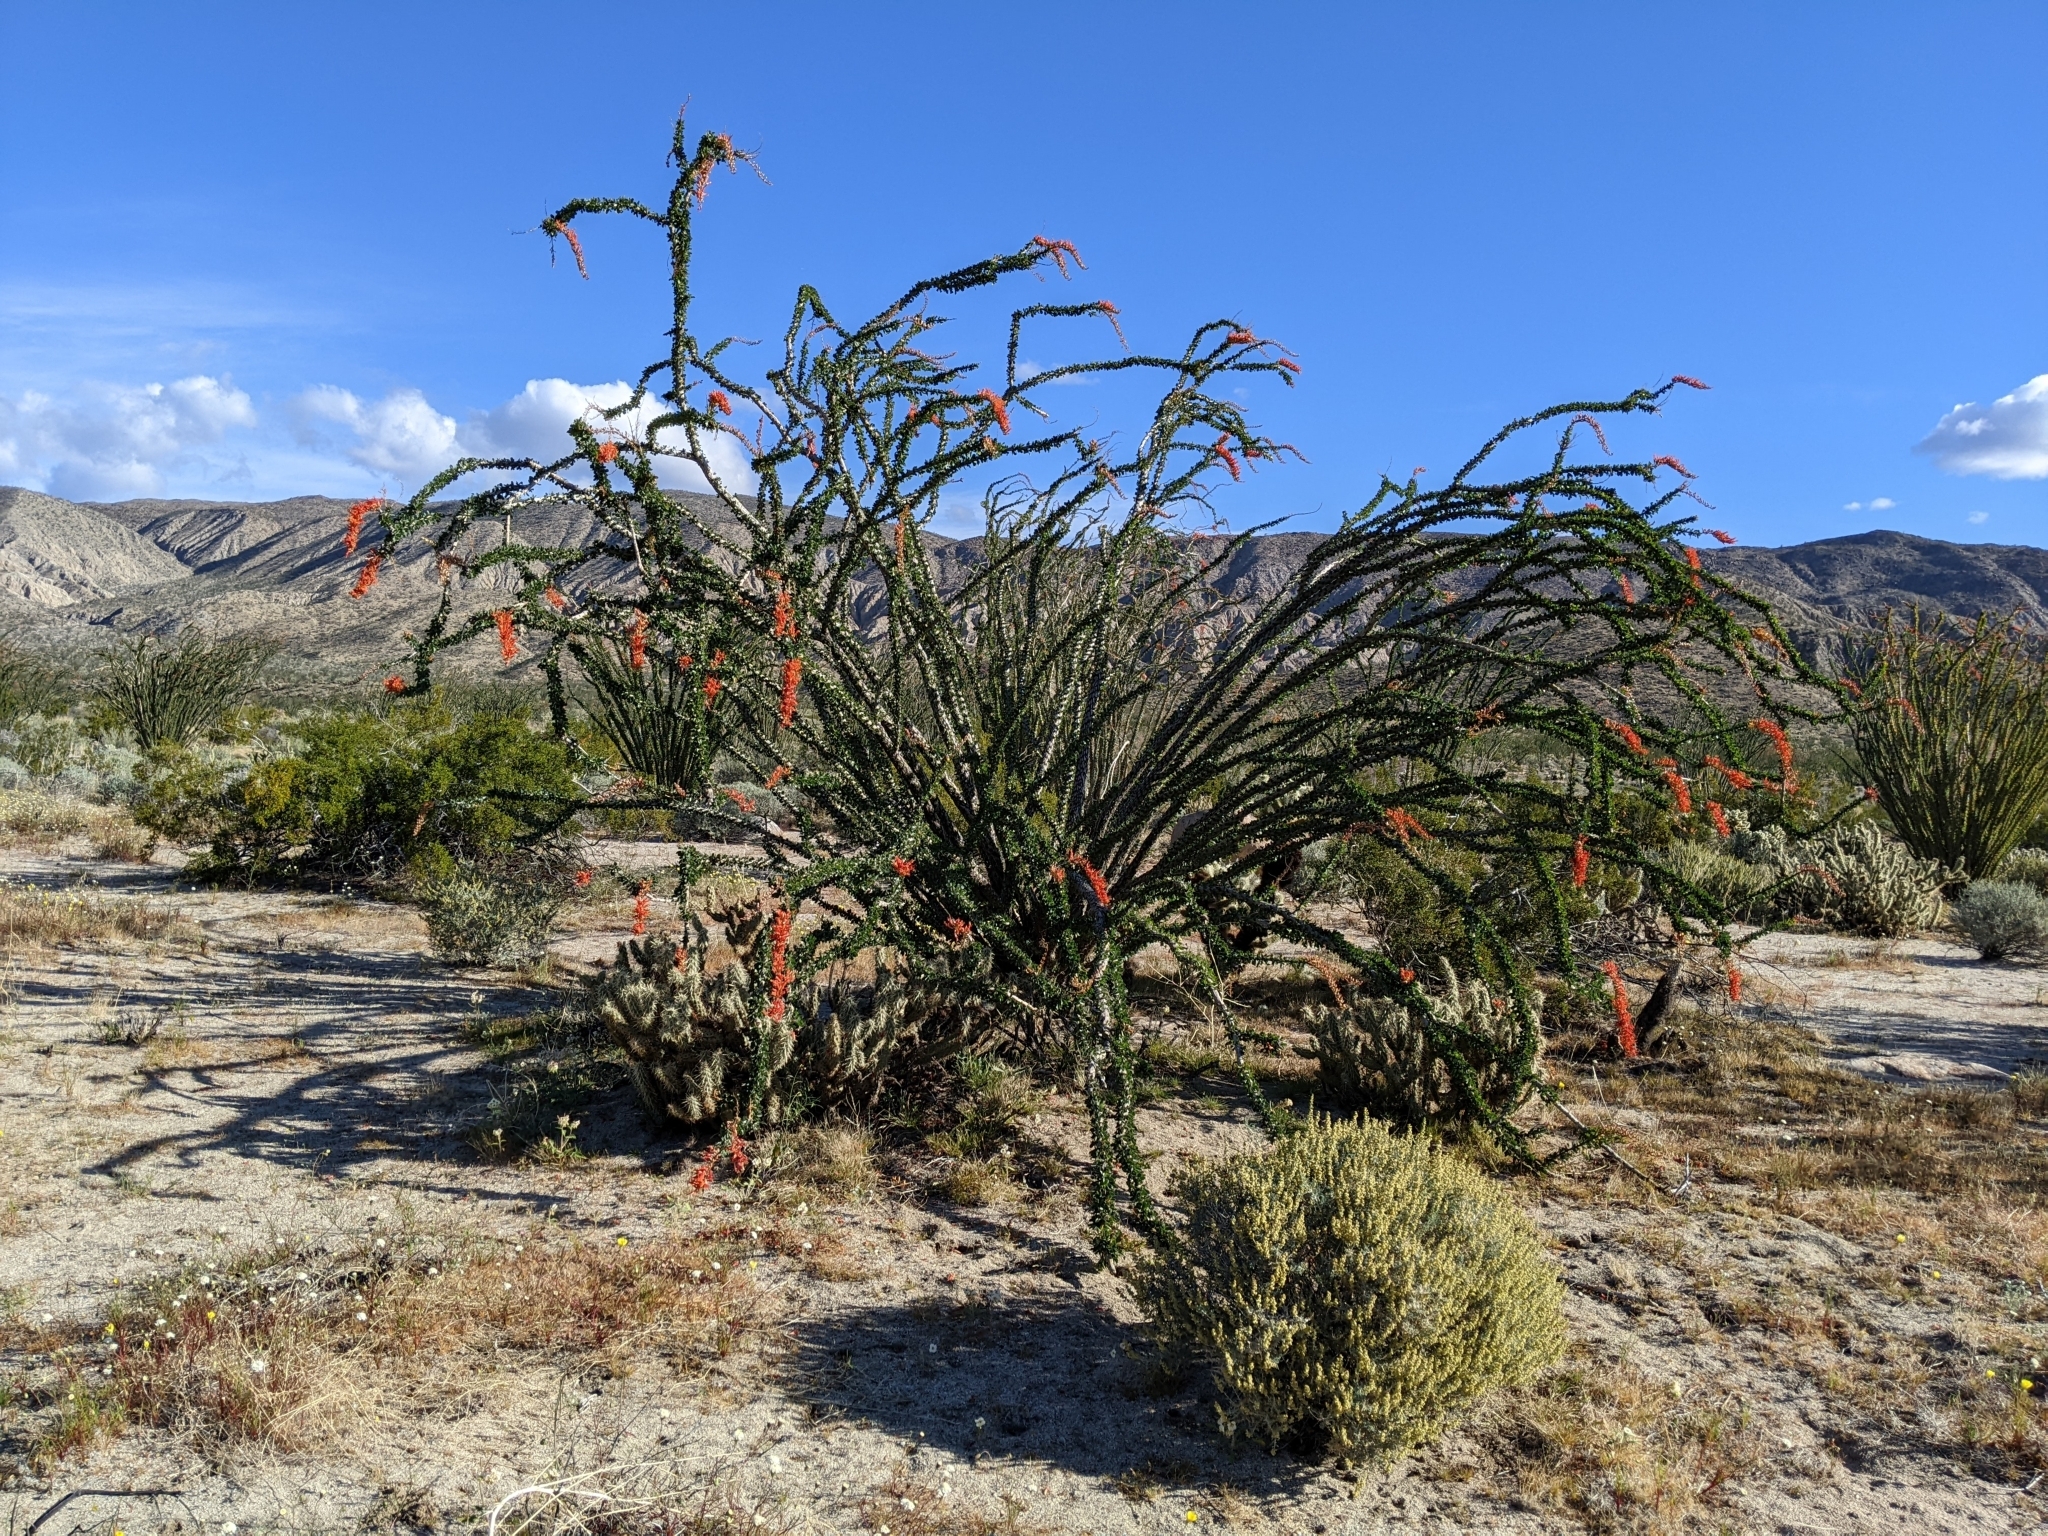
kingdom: Plantae
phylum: Tracheophyta
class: Magnoliopsida
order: Ericales
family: Fouquieriaceae
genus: Fouquieria
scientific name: Fouquieria splendens
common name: Vine-cactus
